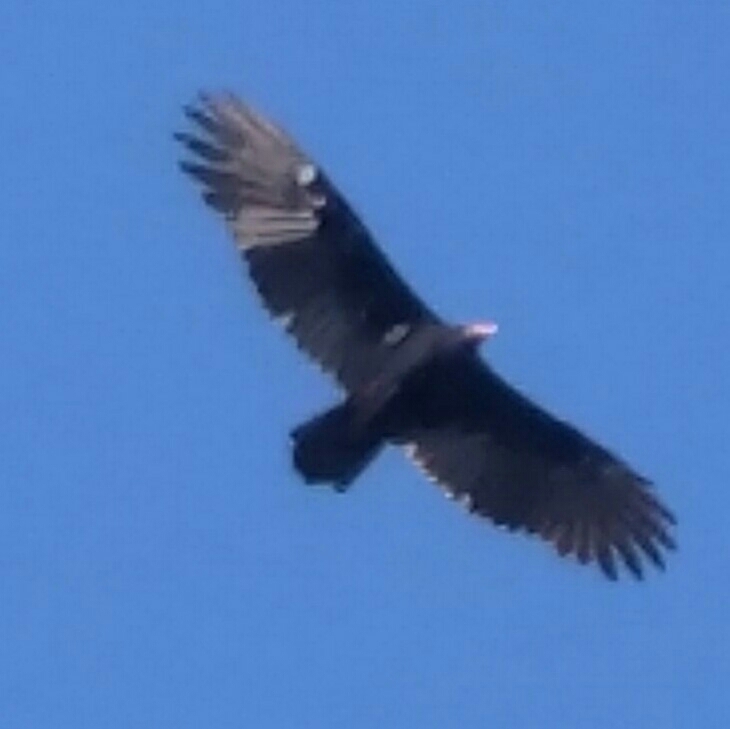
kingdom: Animalia
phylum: Chordata
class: Aves
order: Accipitriformes
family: Cathartidae
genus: Cathartes
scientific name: Cathartes aura
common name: Turkey vulture
